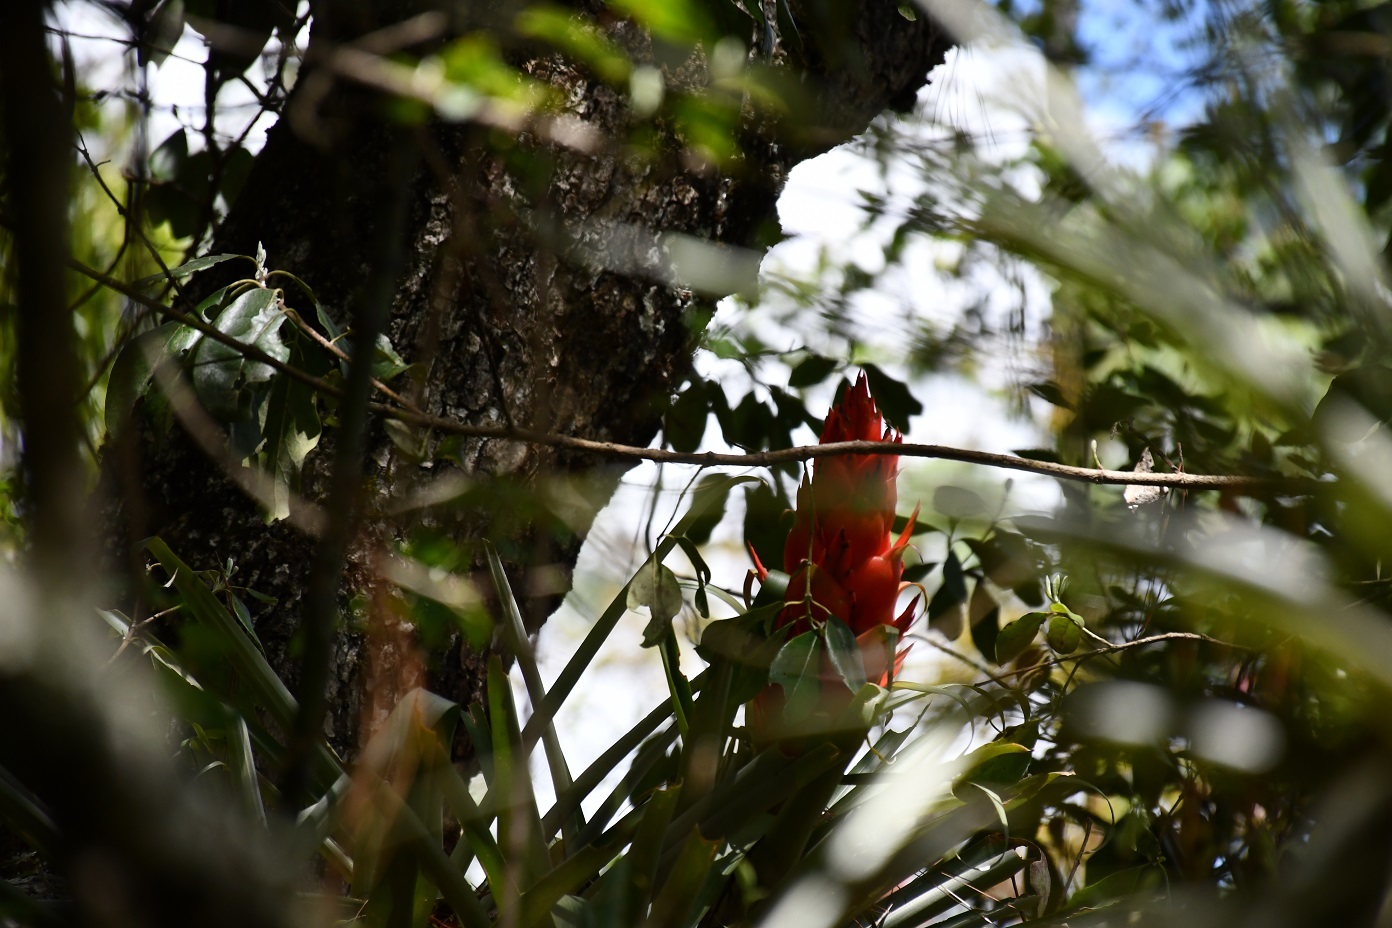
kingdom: Plantae
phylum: Tracheophyta
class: Liliopsida
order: Poales
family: Bromeliaceae
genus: Tillandsia
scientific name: Tillandsia ponderosa
